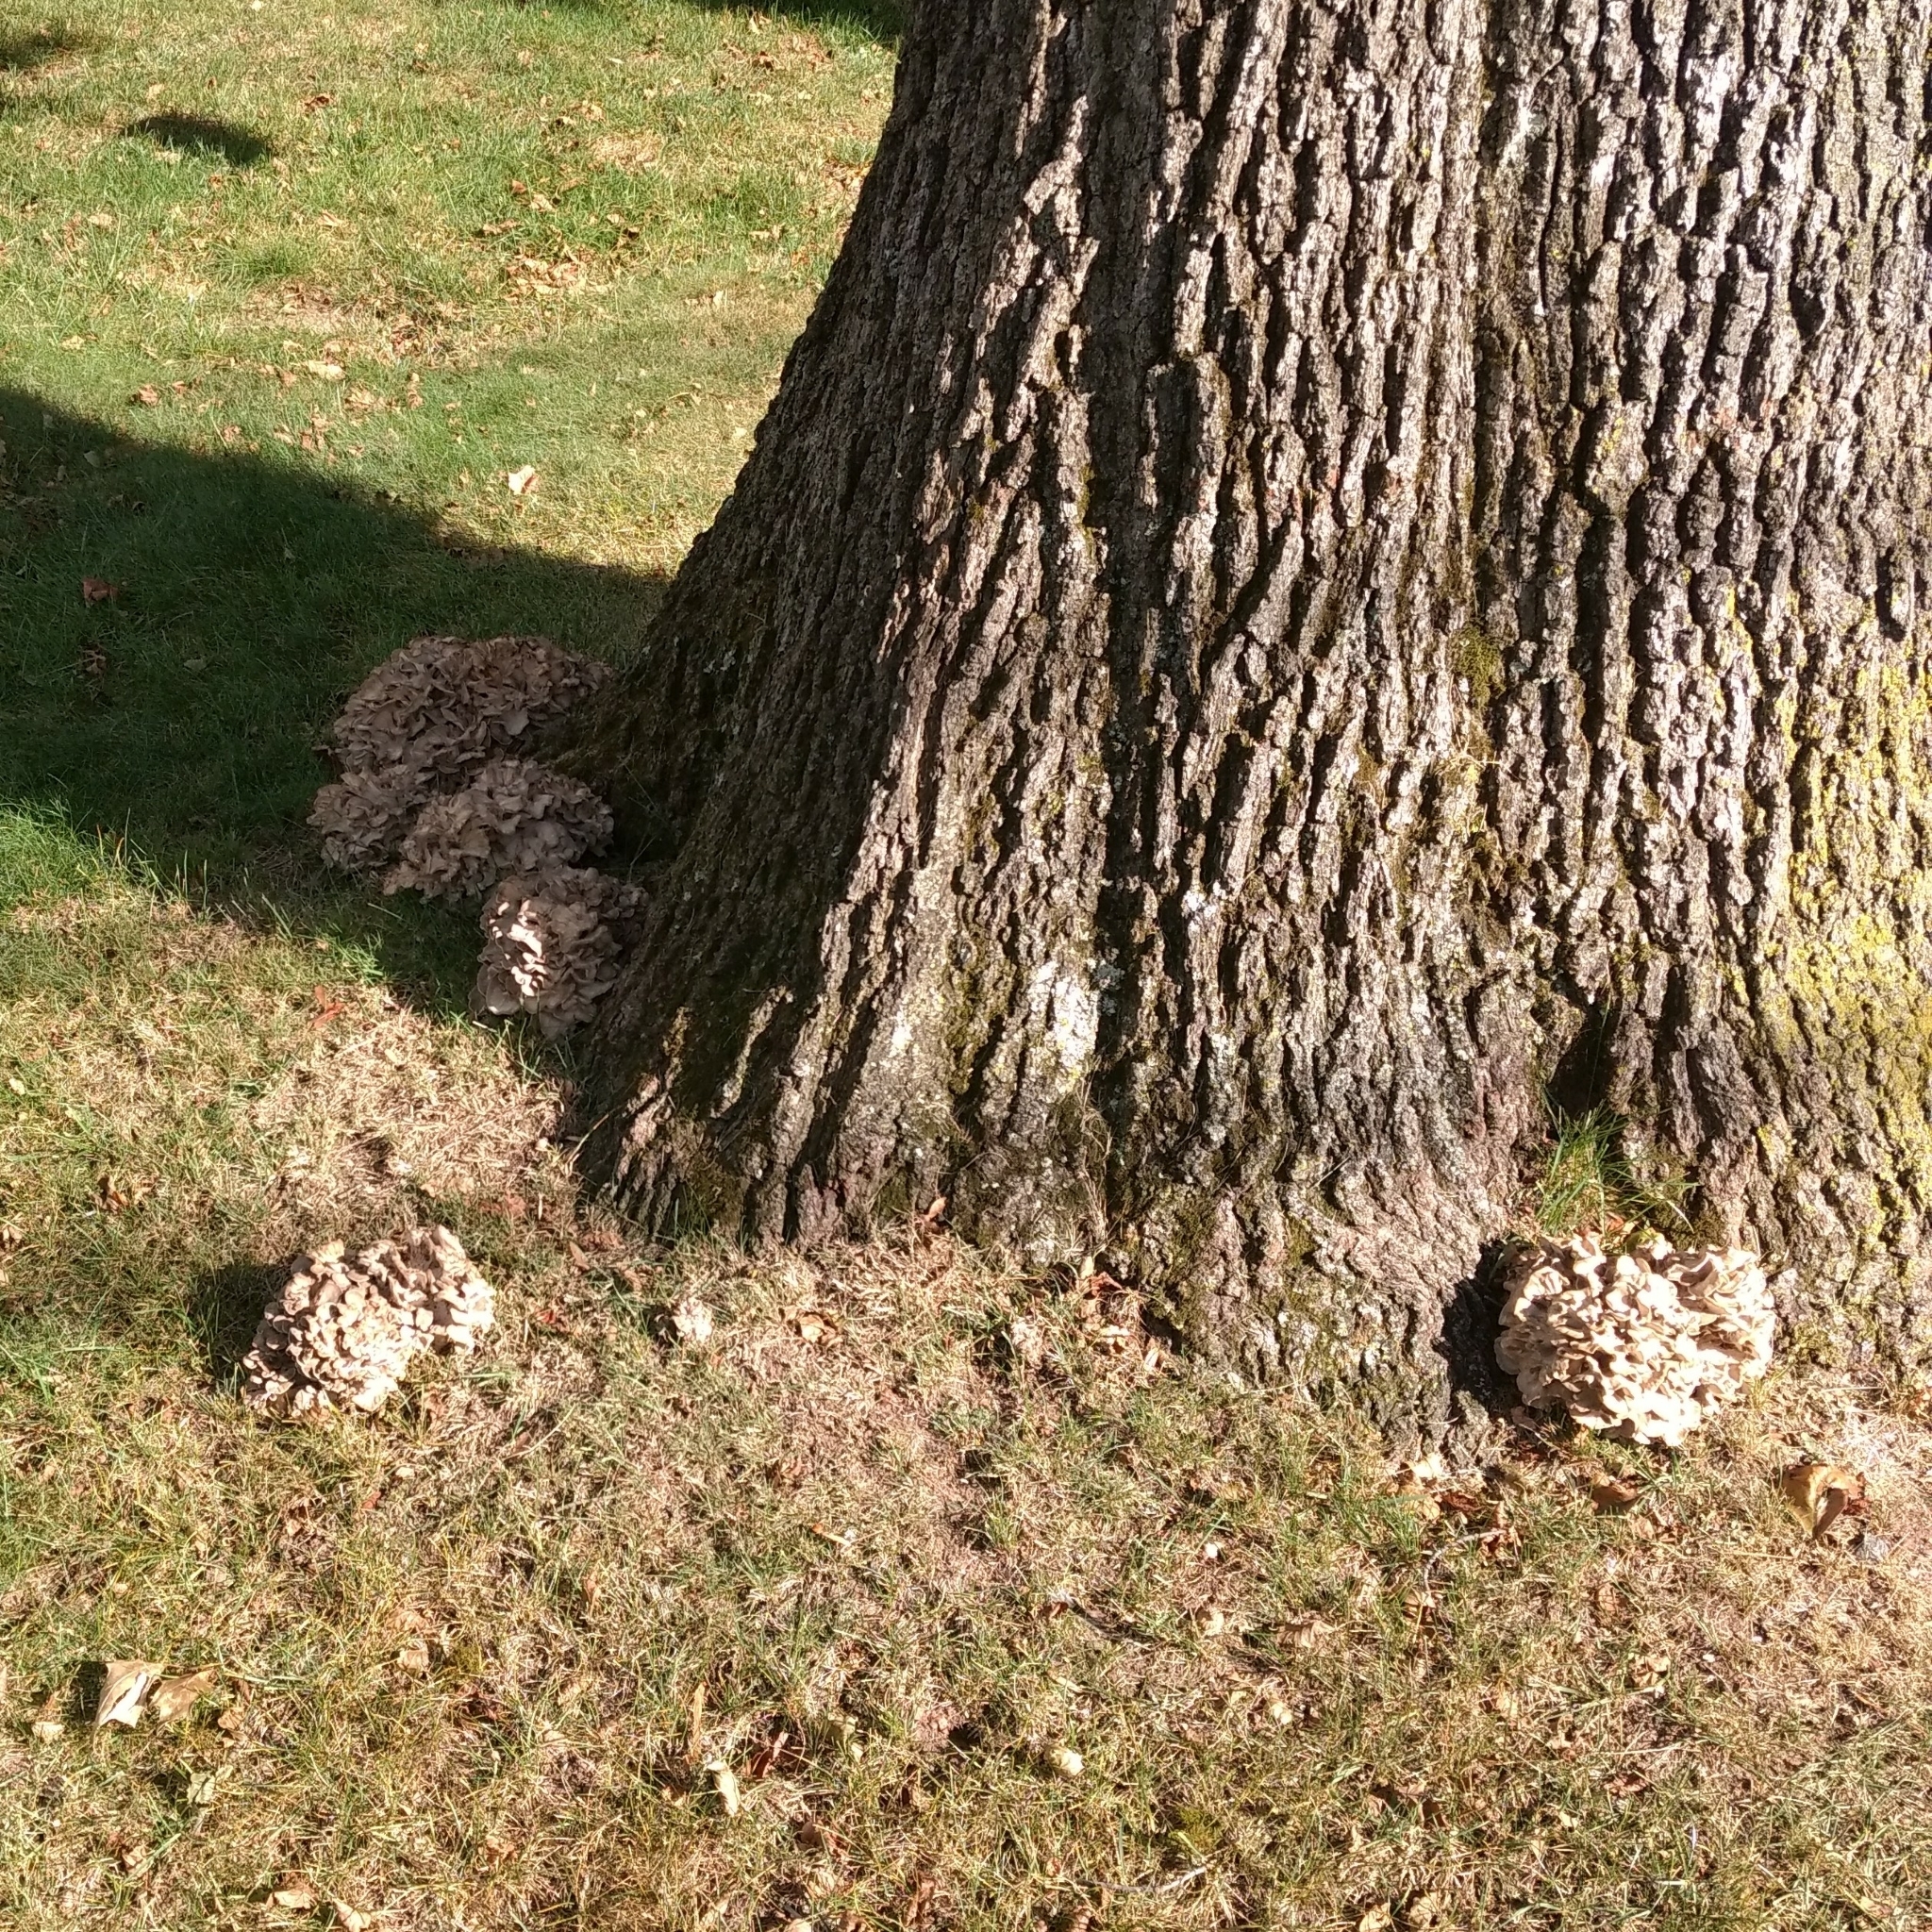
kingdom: Fungi
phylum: Basidiomycota
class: Agaricomycetes
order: Polyporales
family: Grifolaceae
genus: Grifola
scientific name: Grifola frondosa
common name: Hen of the woods
